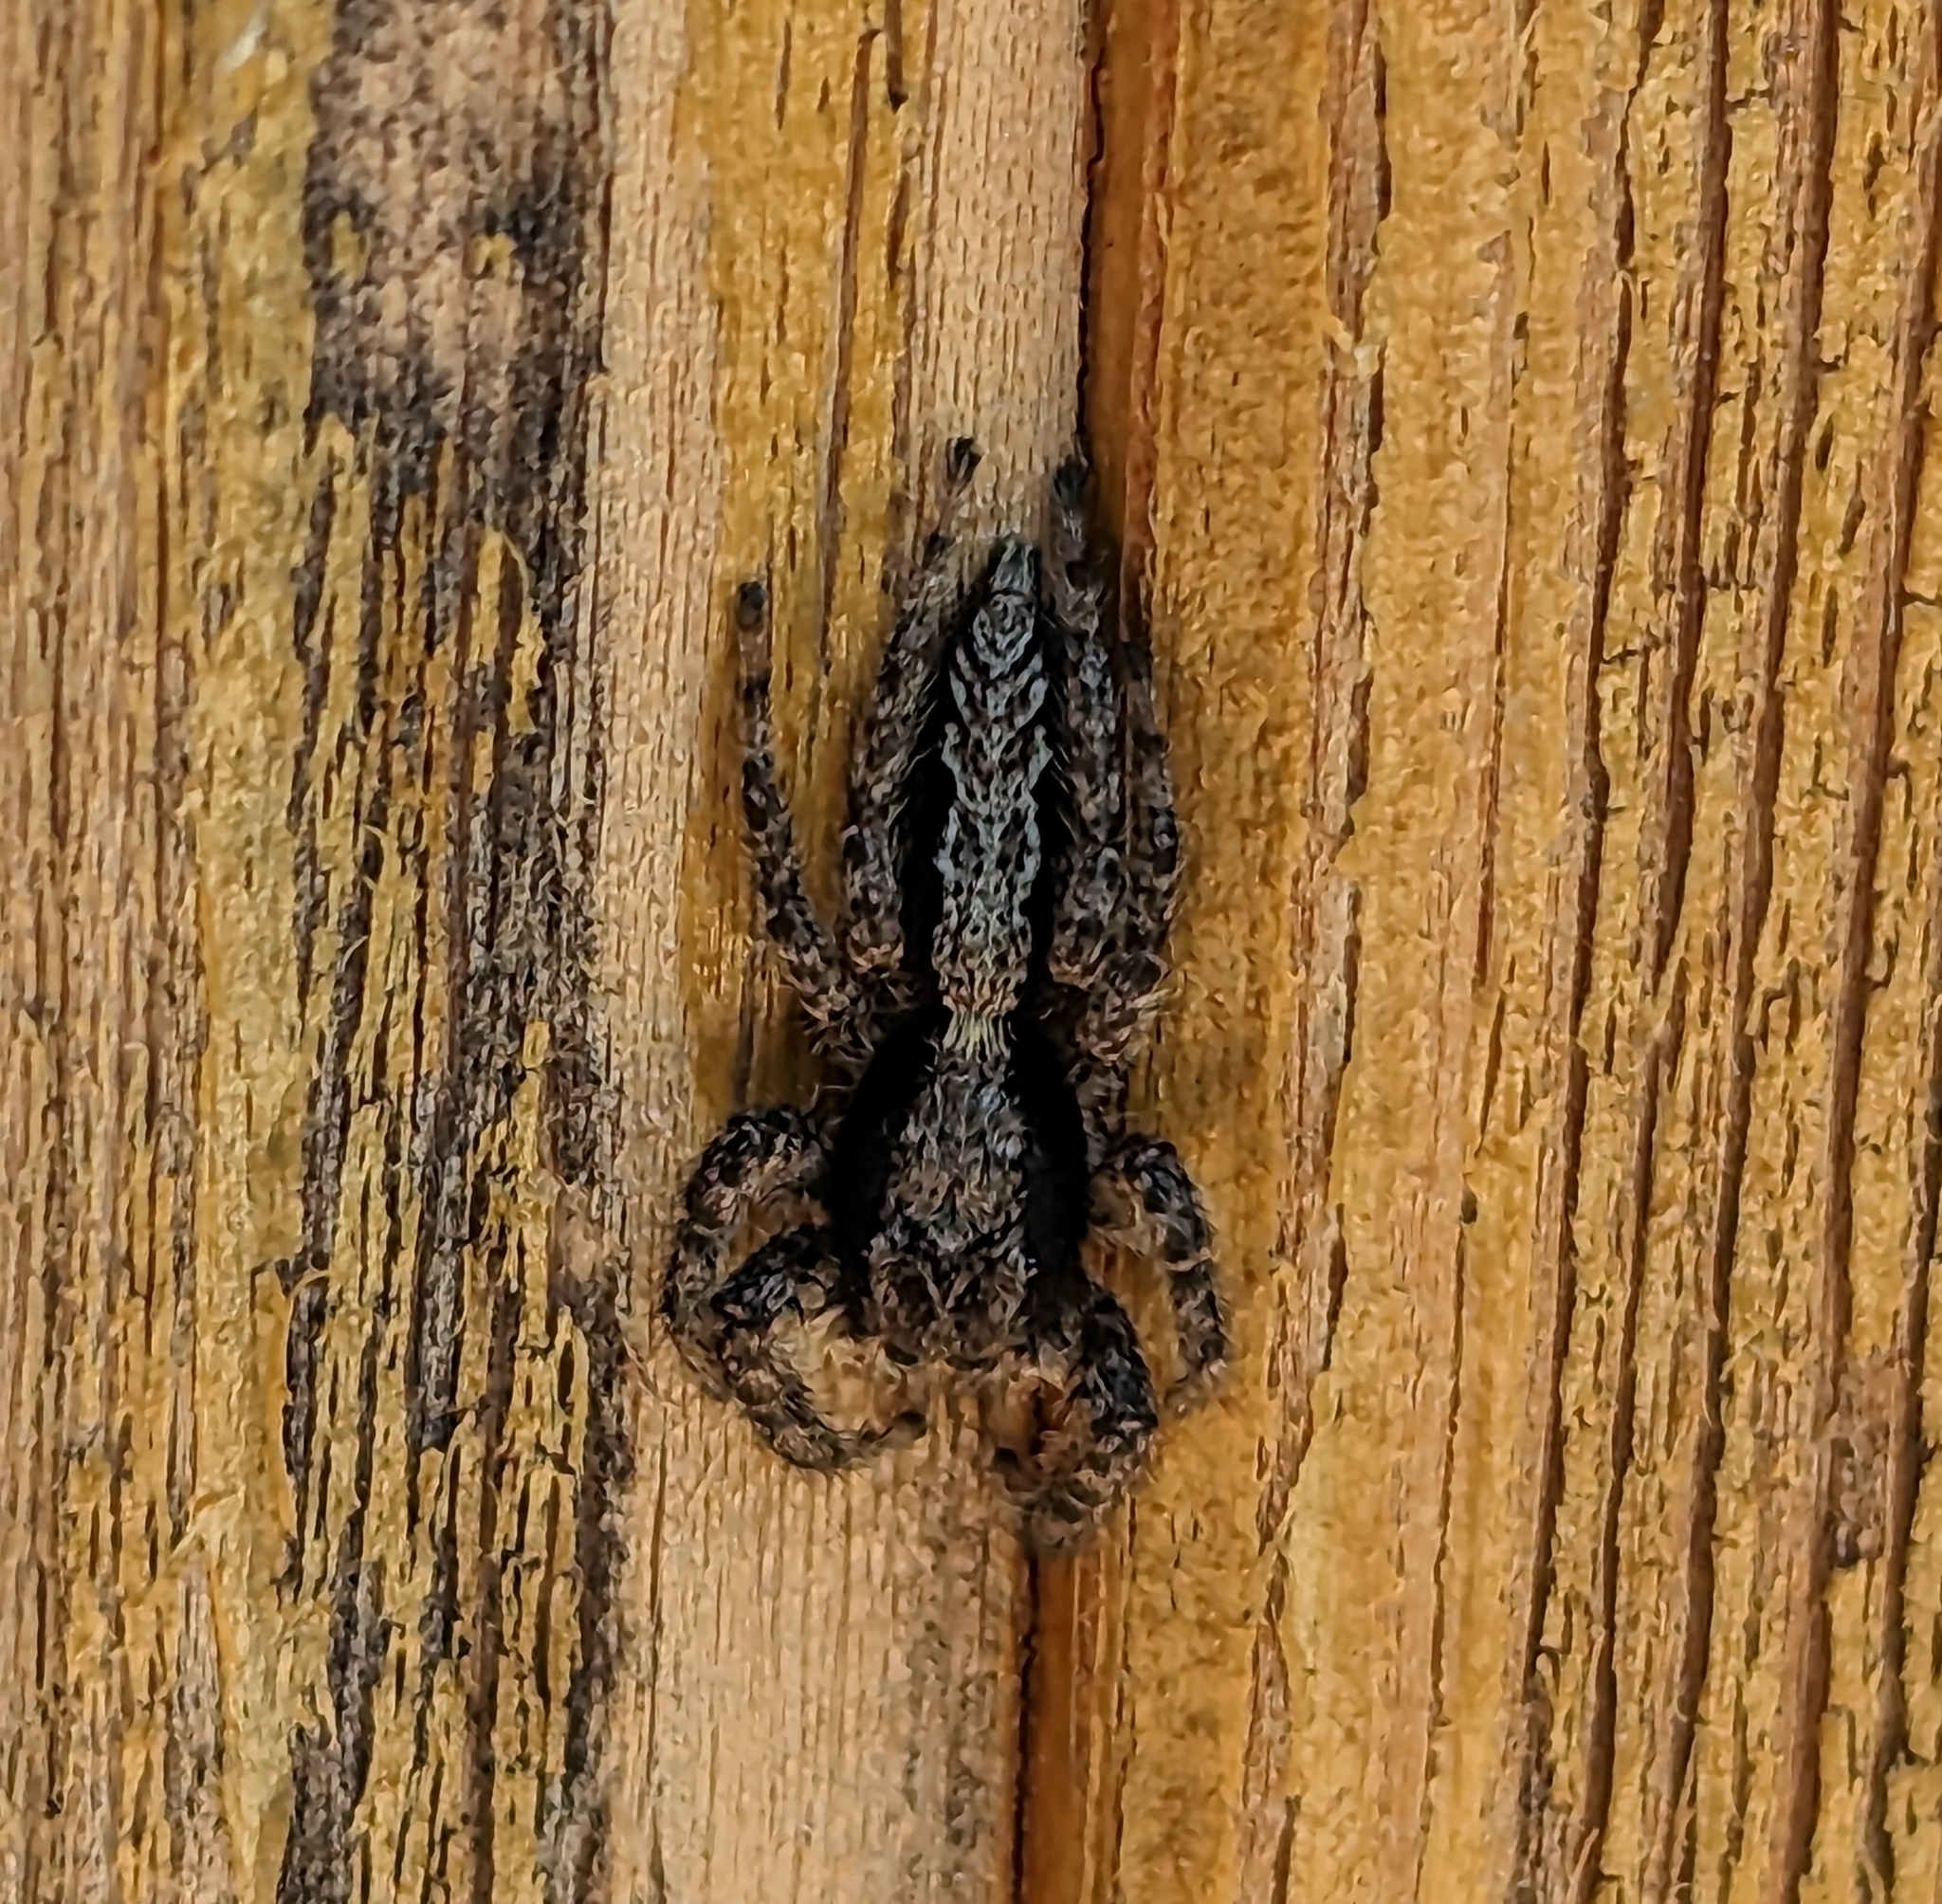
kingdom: Animalia
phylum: Arthropoda
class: Arachnida
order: Araneae
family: Salticidae
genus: Platycryptus
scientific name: Platycryptus californicus
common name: Jumping spiders
